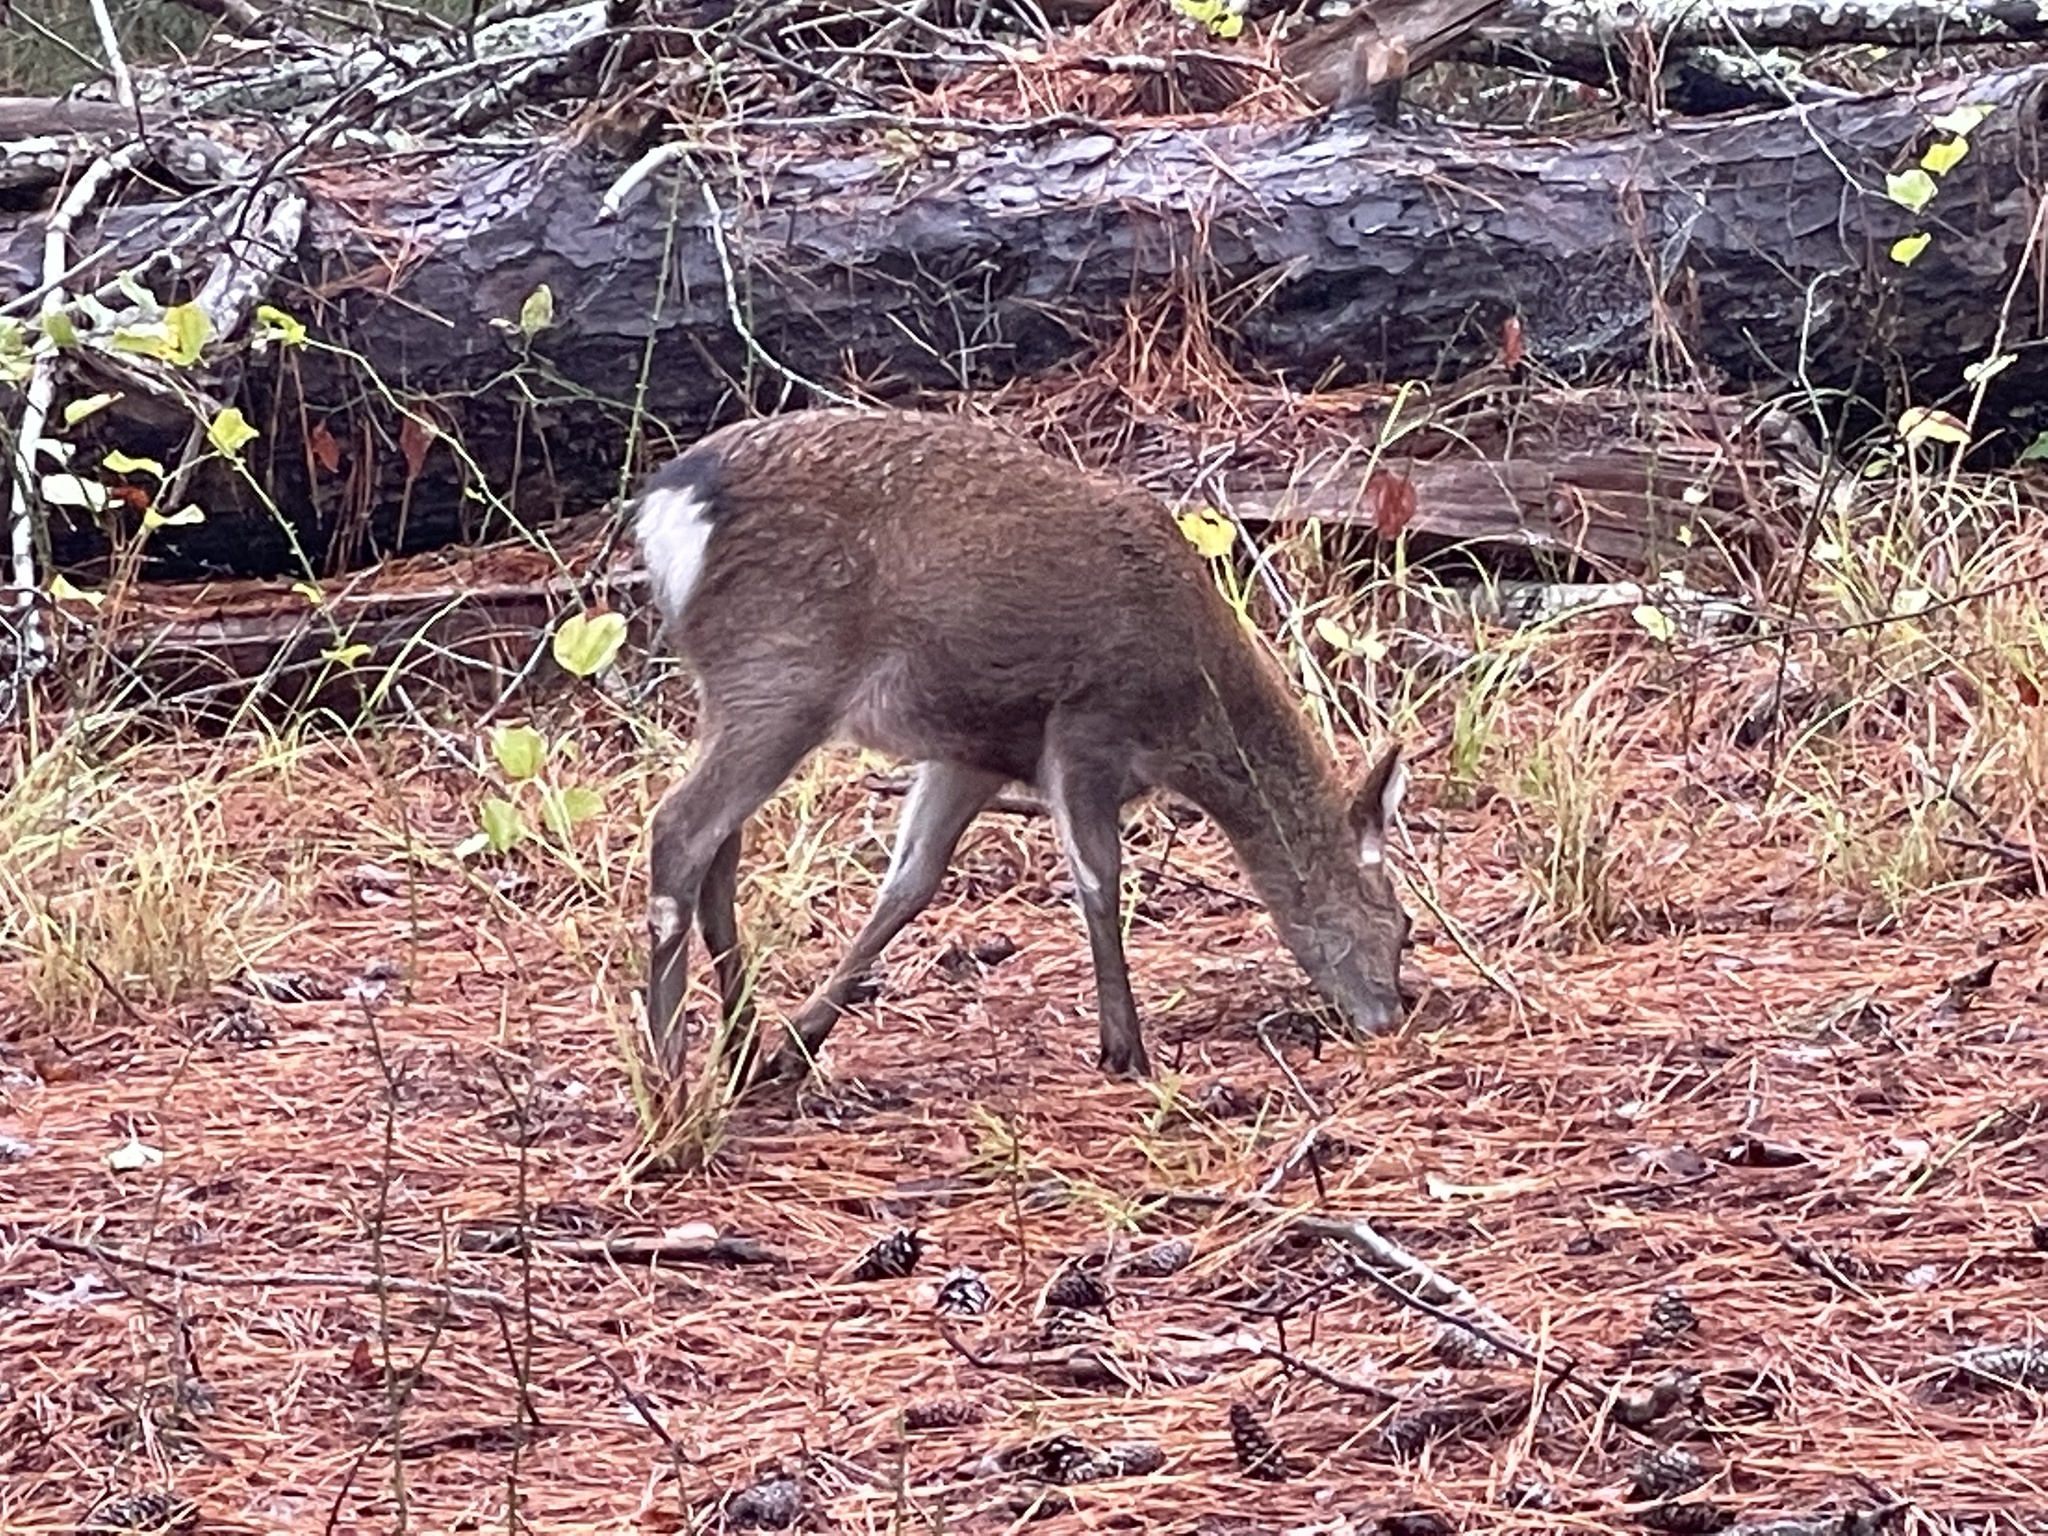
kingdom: Animalia
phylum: Chordata
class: Mammalia
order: Artiodactyla
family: Cervidae
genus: Cervus
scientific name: Cervus nippon
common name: Sika deer
